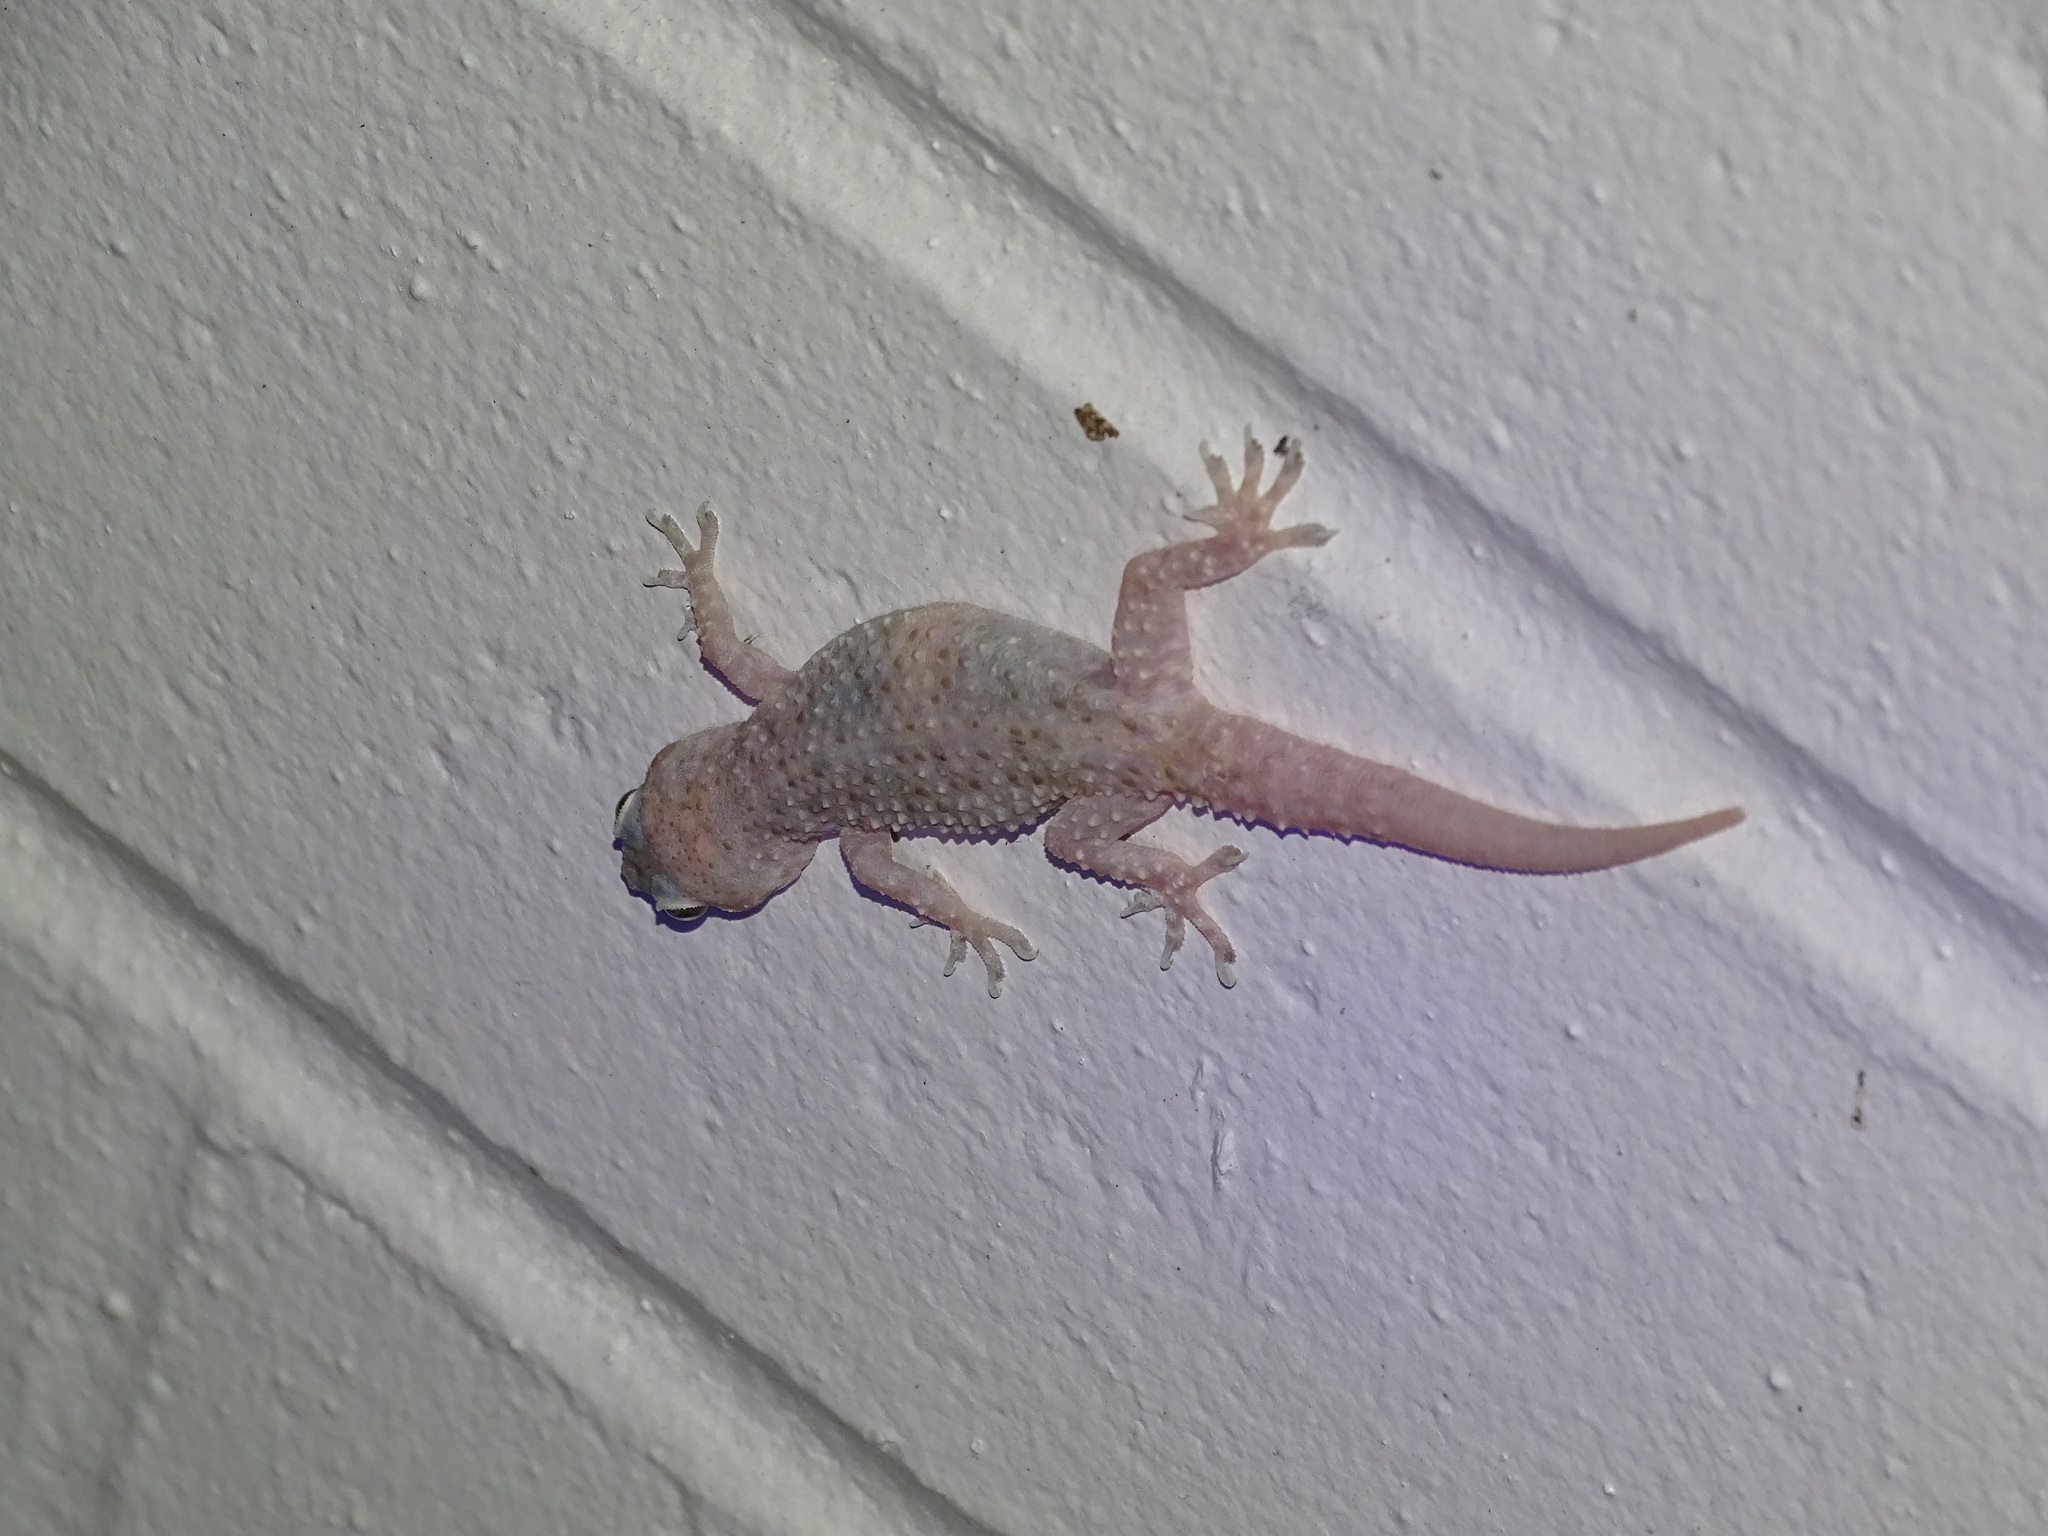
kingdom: Animalia
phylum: Chordata
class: Squamata
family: Gekkonidae
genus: Hemidactylus
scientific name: Hemidactylus turcicus
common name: Turkish gecko
